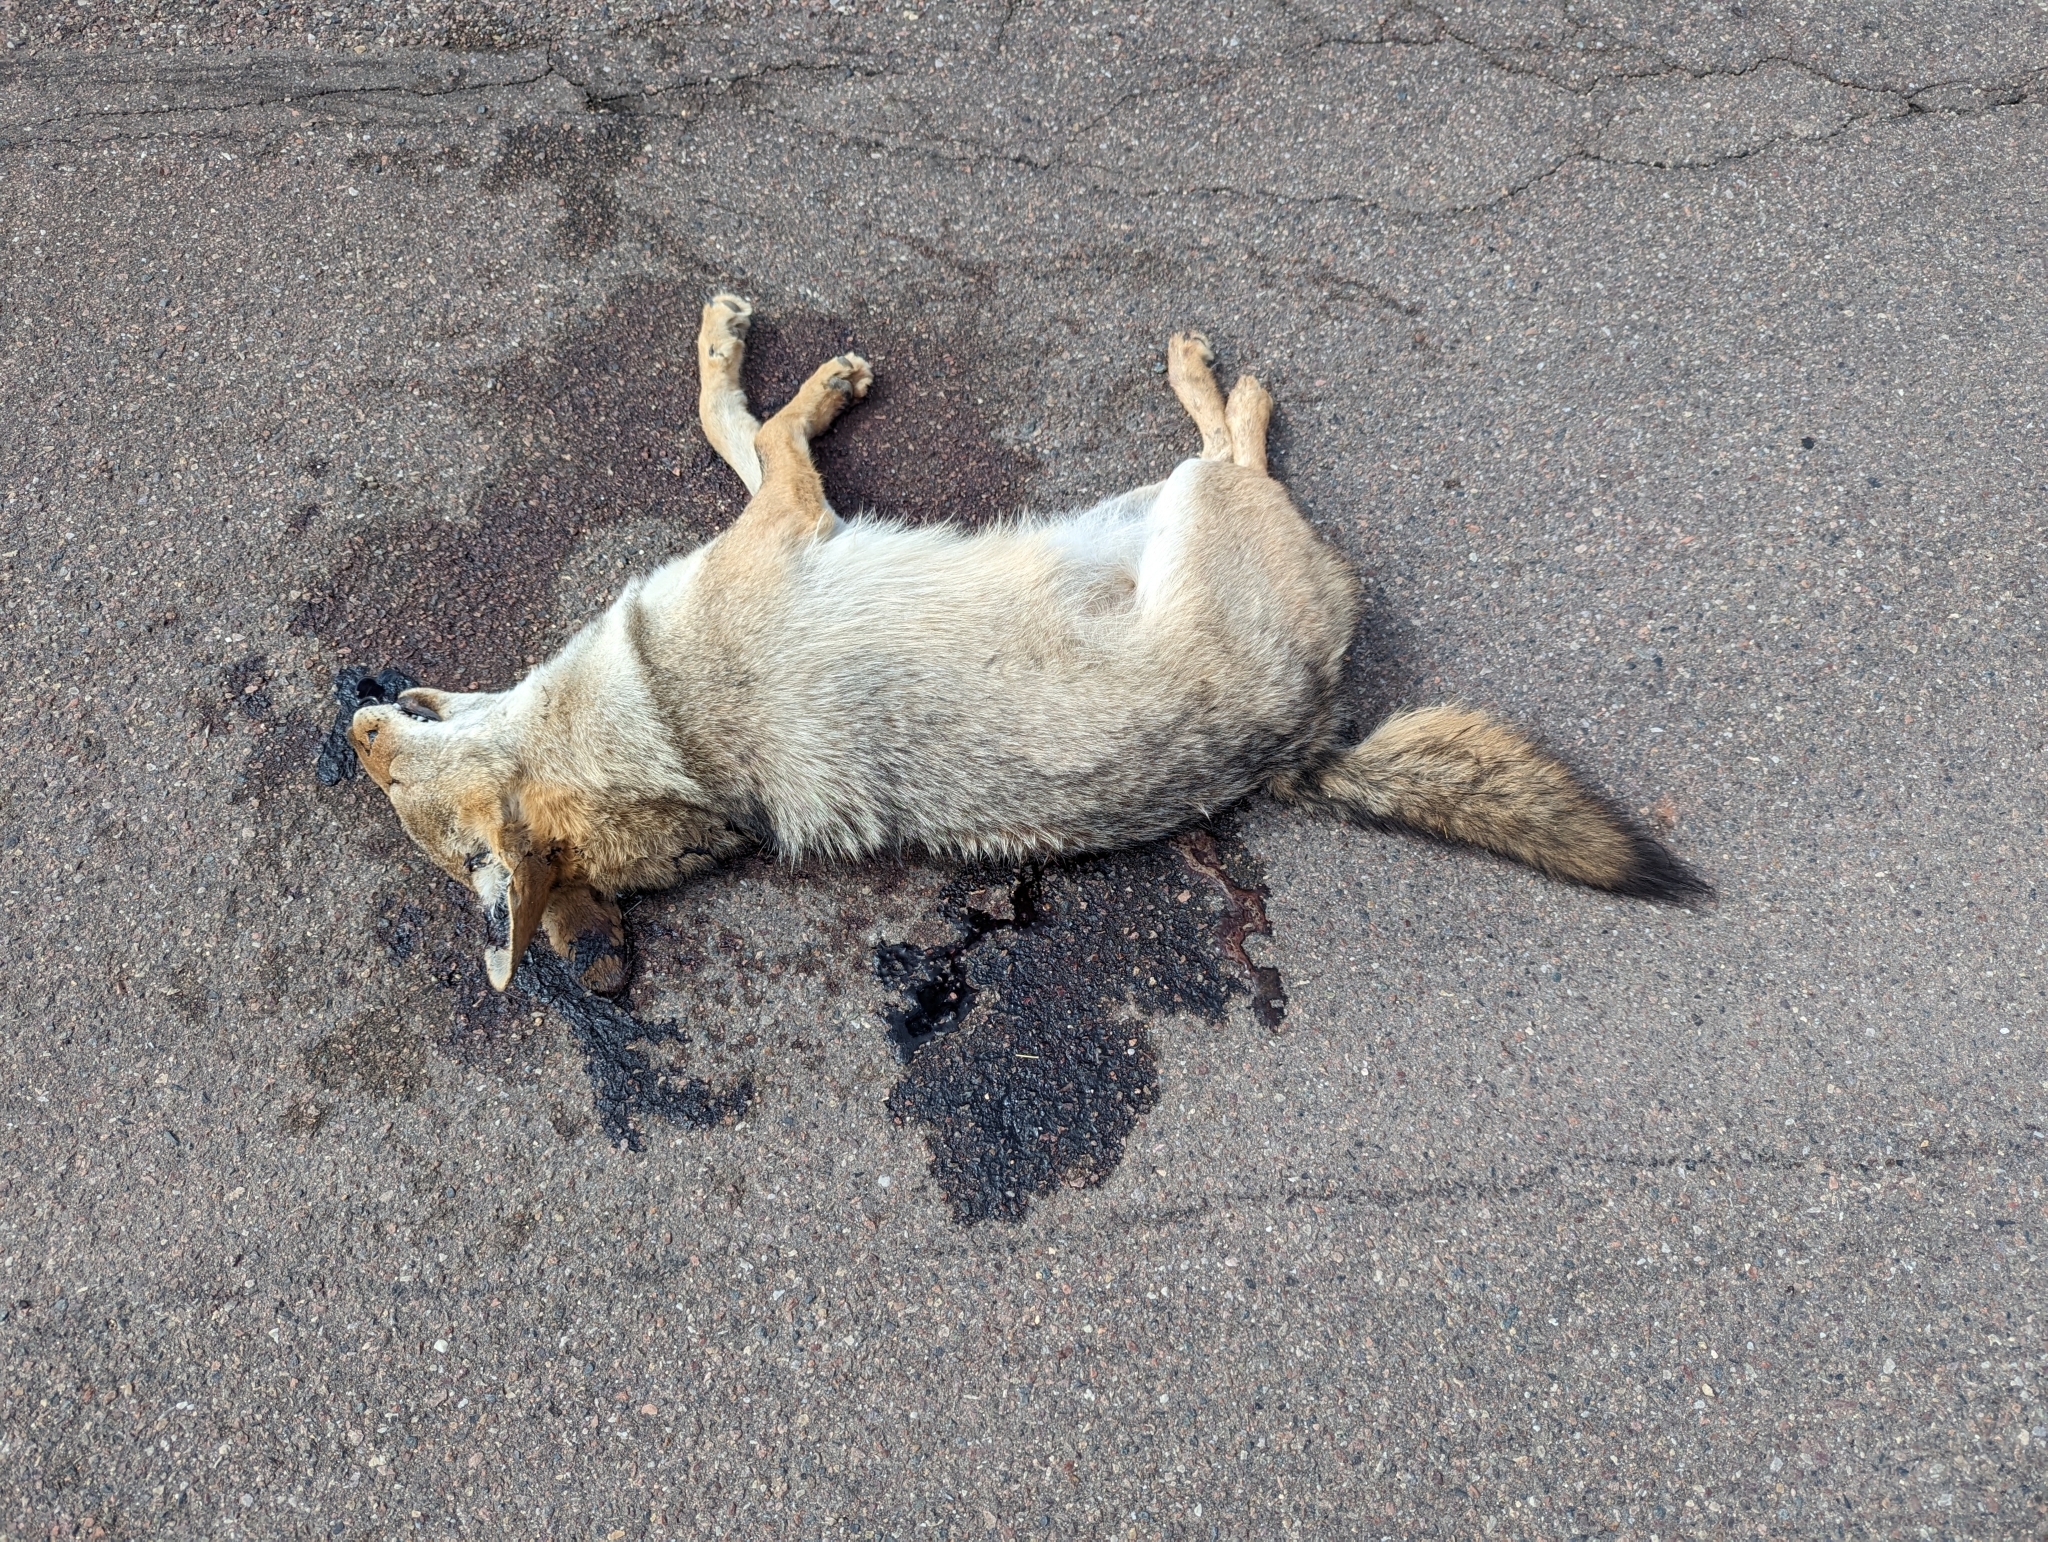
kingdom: Animalia
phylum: Chordata
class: Mammalia
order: Carnivora
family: Canidae
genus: Canis
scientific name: Canis latrans
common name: Coyote
